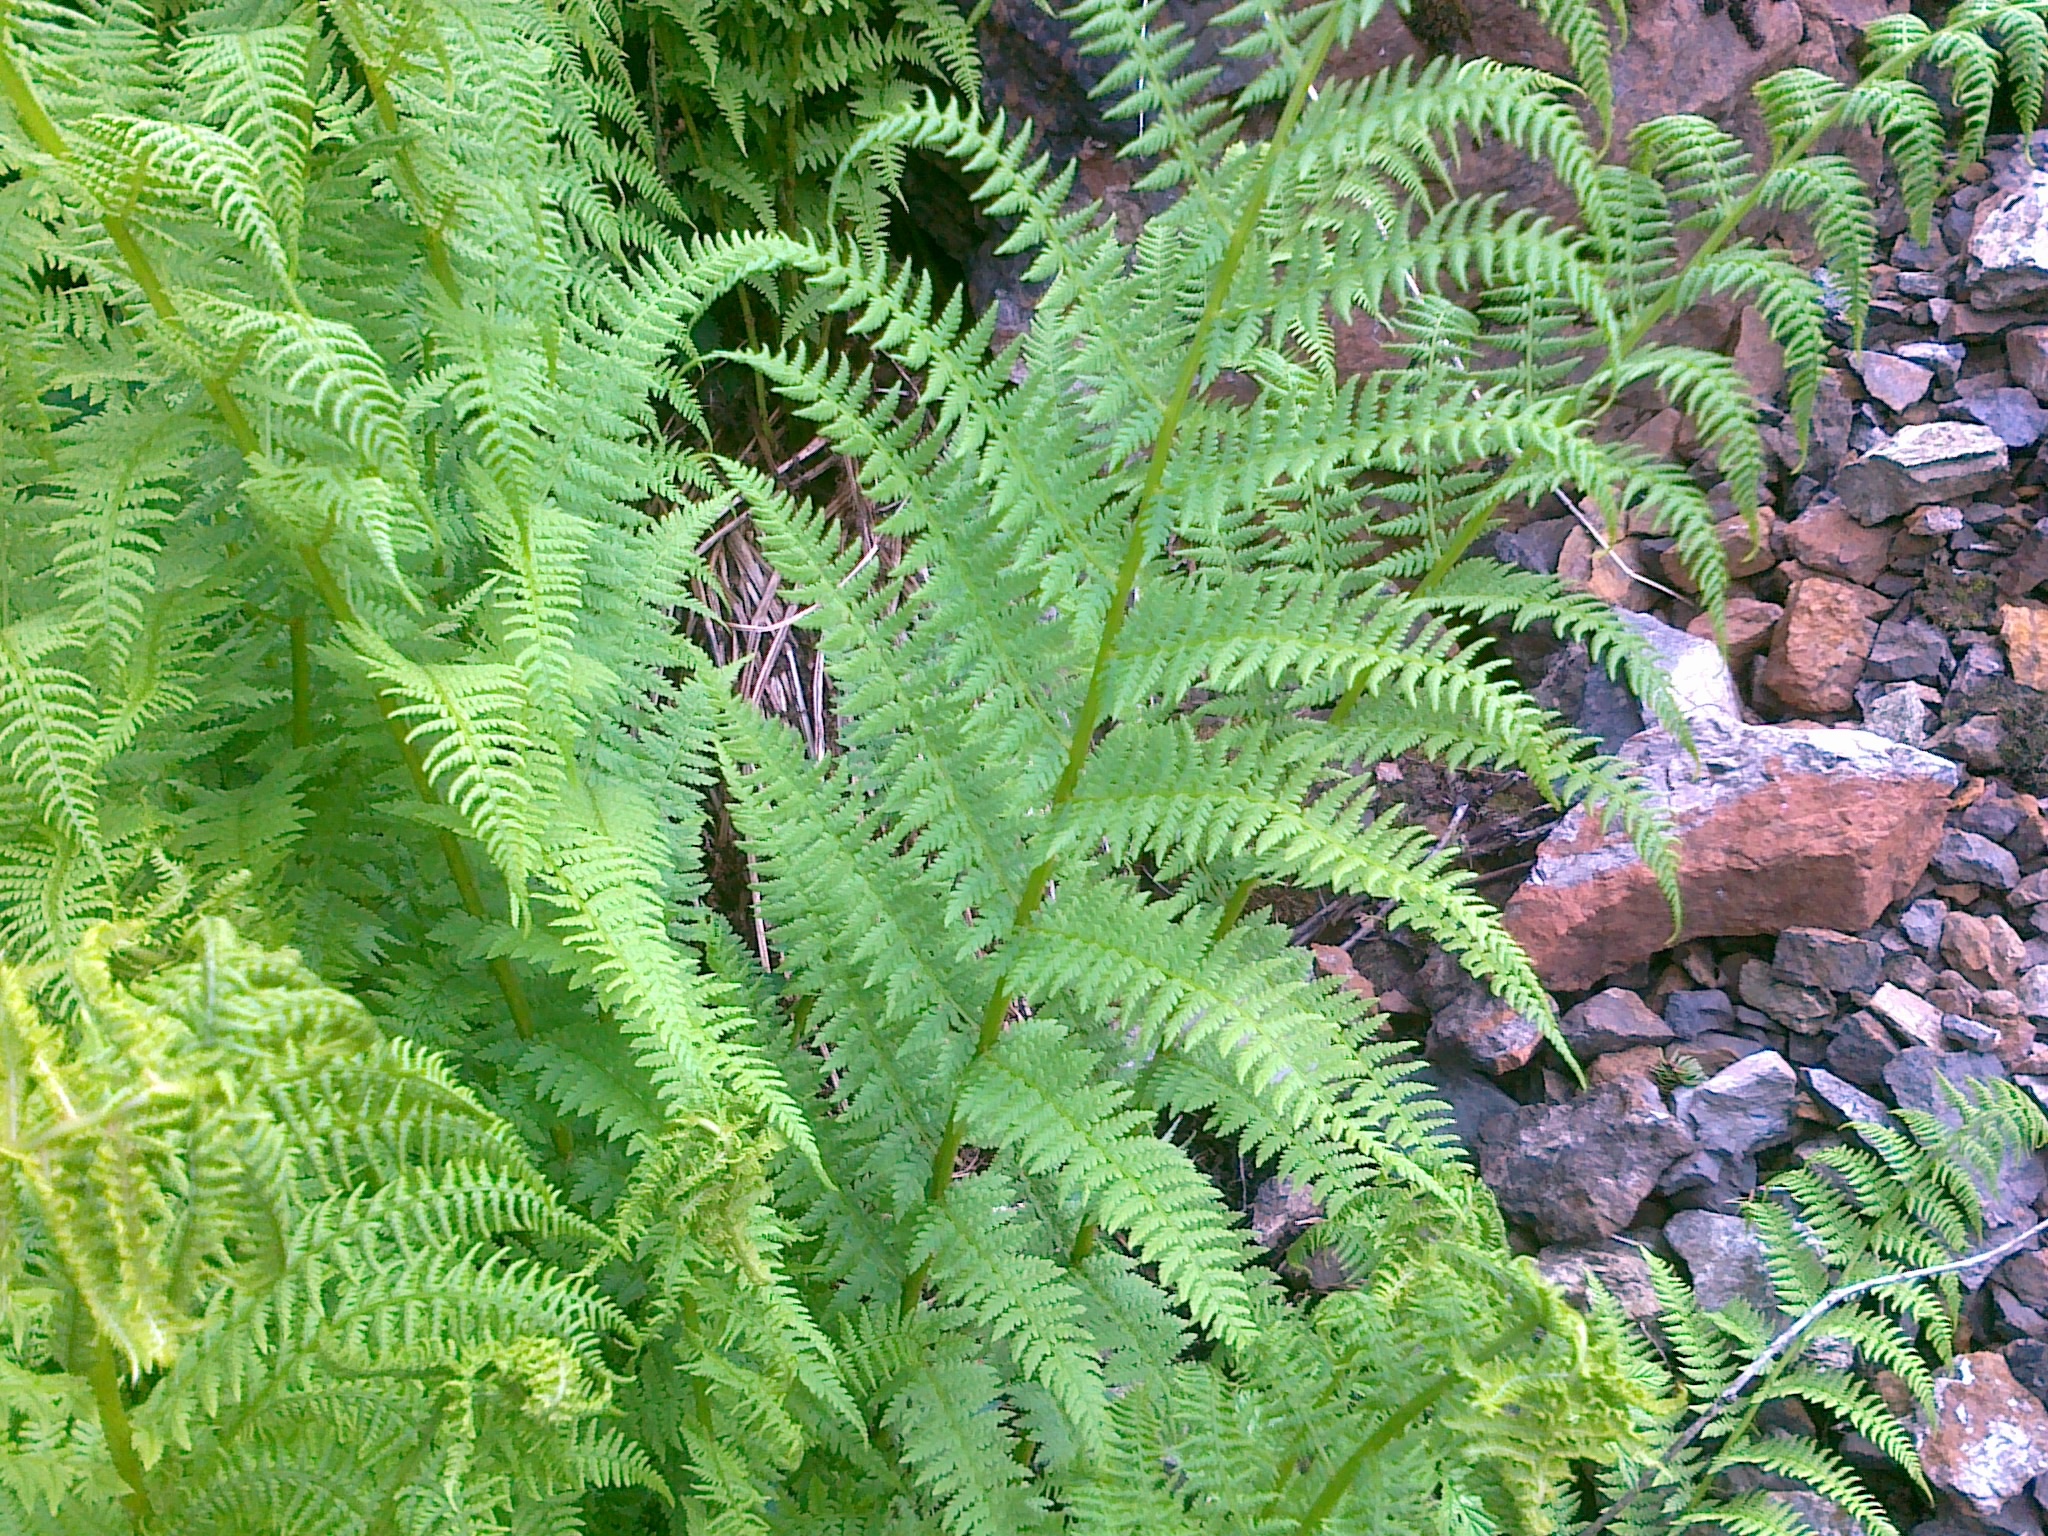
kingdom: Plantae
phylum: Tracheophyta
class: Polypodiopsida
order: Polypodiales
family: Athyriaceae
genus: Pseudathyrium
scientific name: Pseudathyrium alpestre
